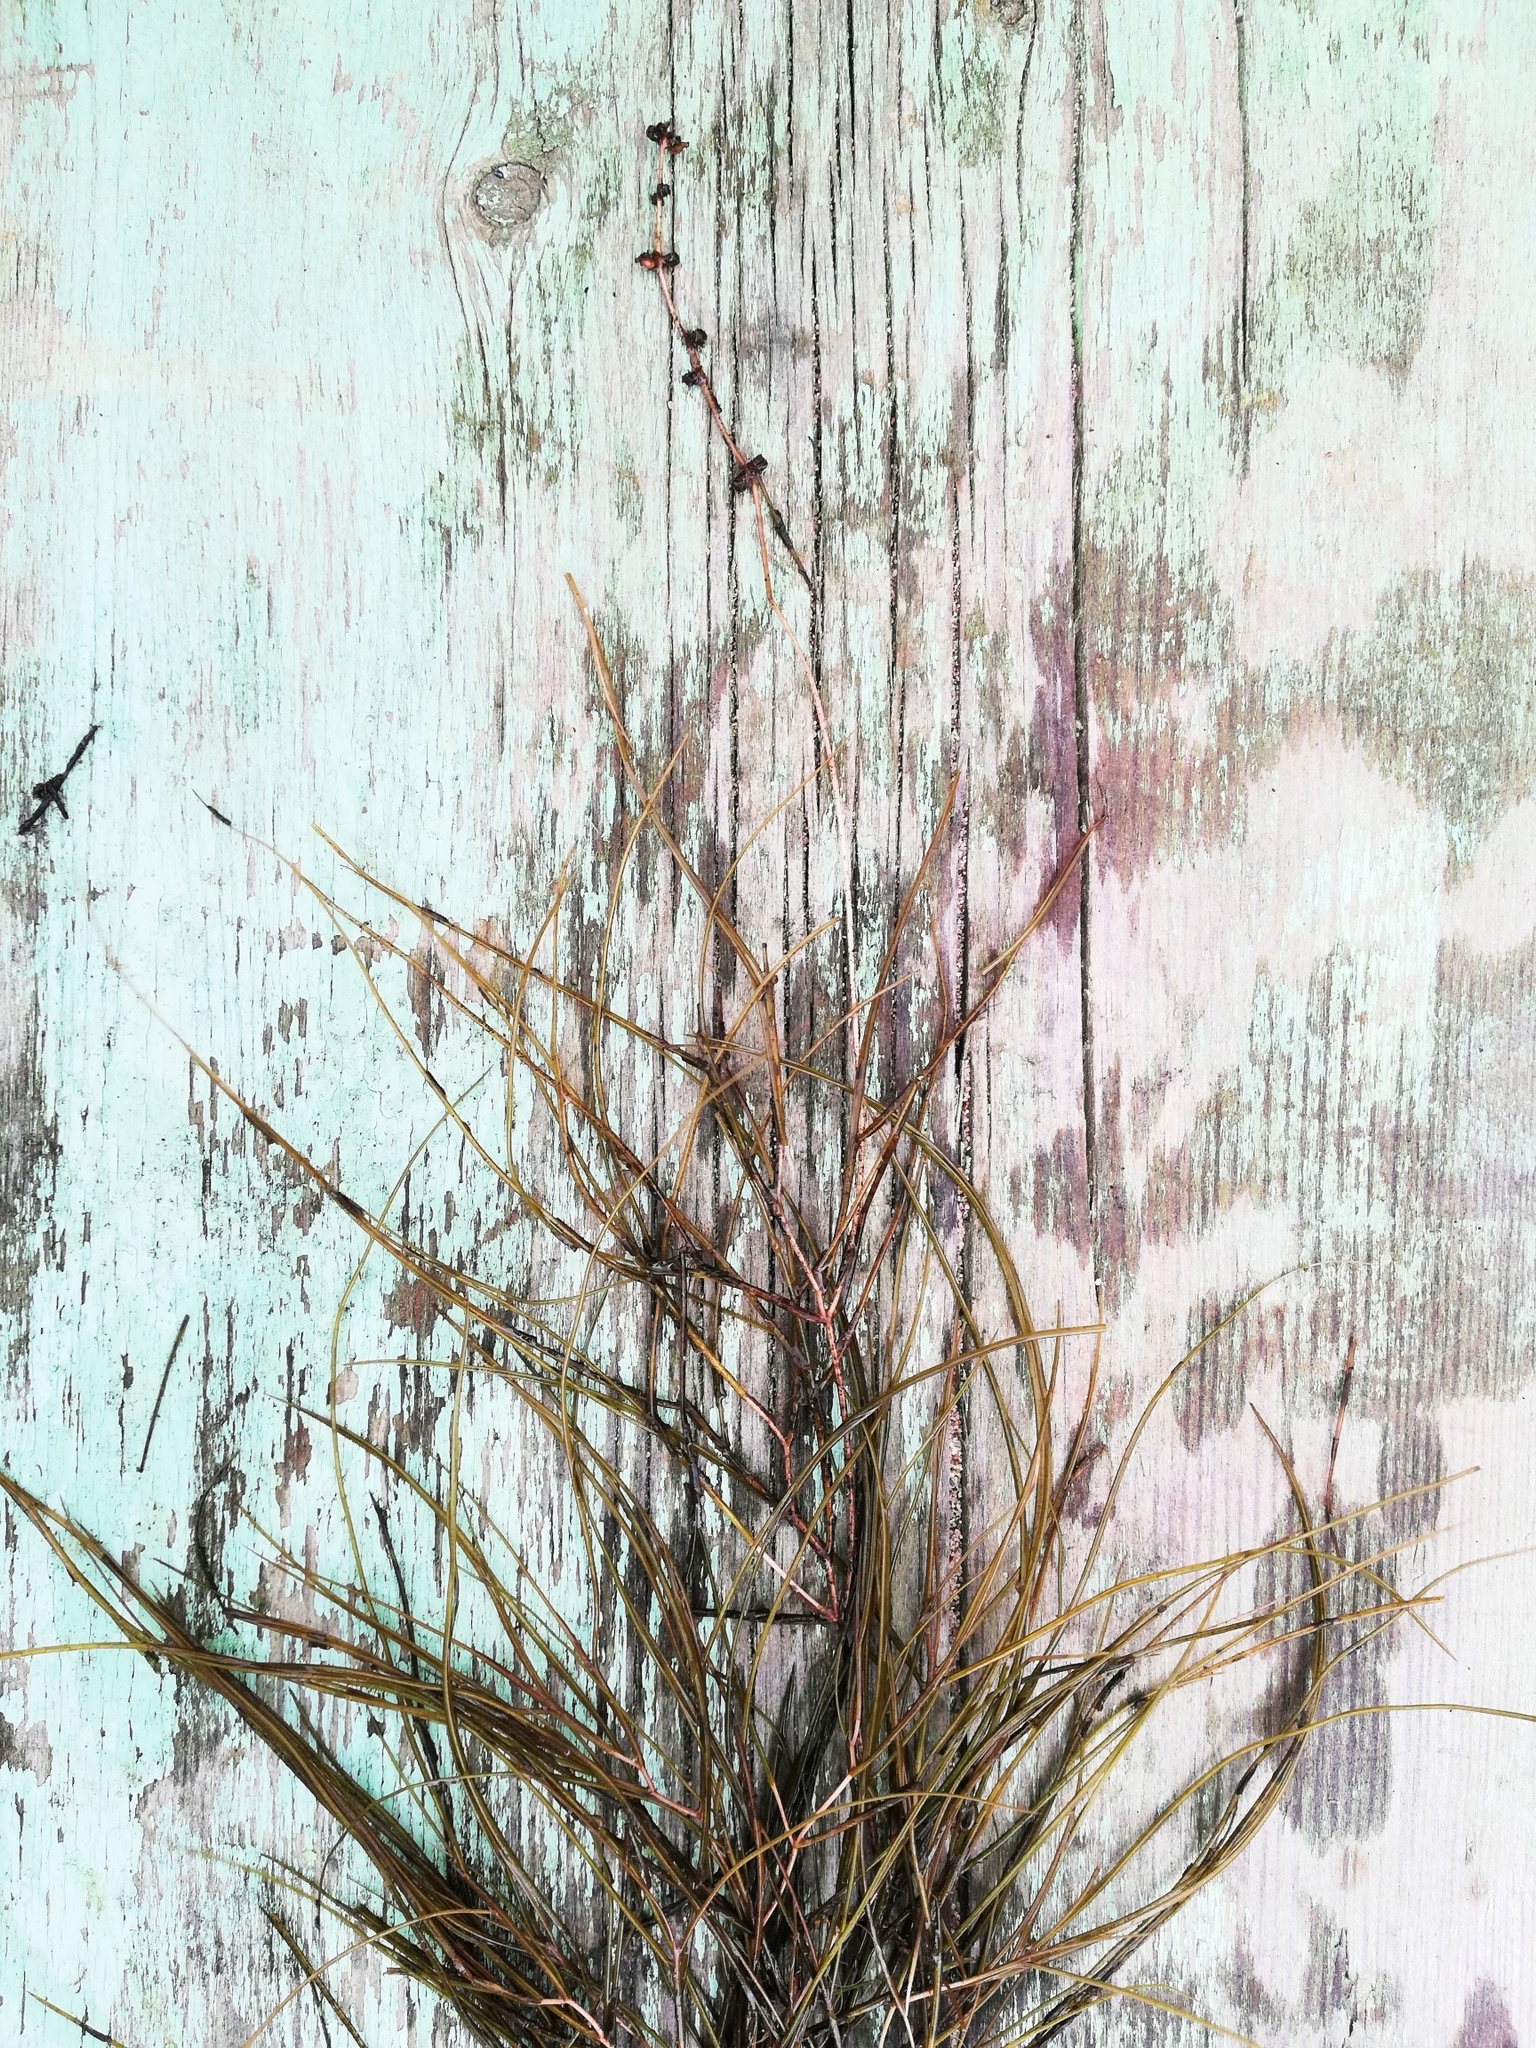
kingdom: Plantae
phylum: Tracheophyta
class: Liliopsida
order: Alismatales
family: Potamogetonaceae
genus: Stuckenia
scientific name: Stuckenia pectinata
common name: Sago pondweed
